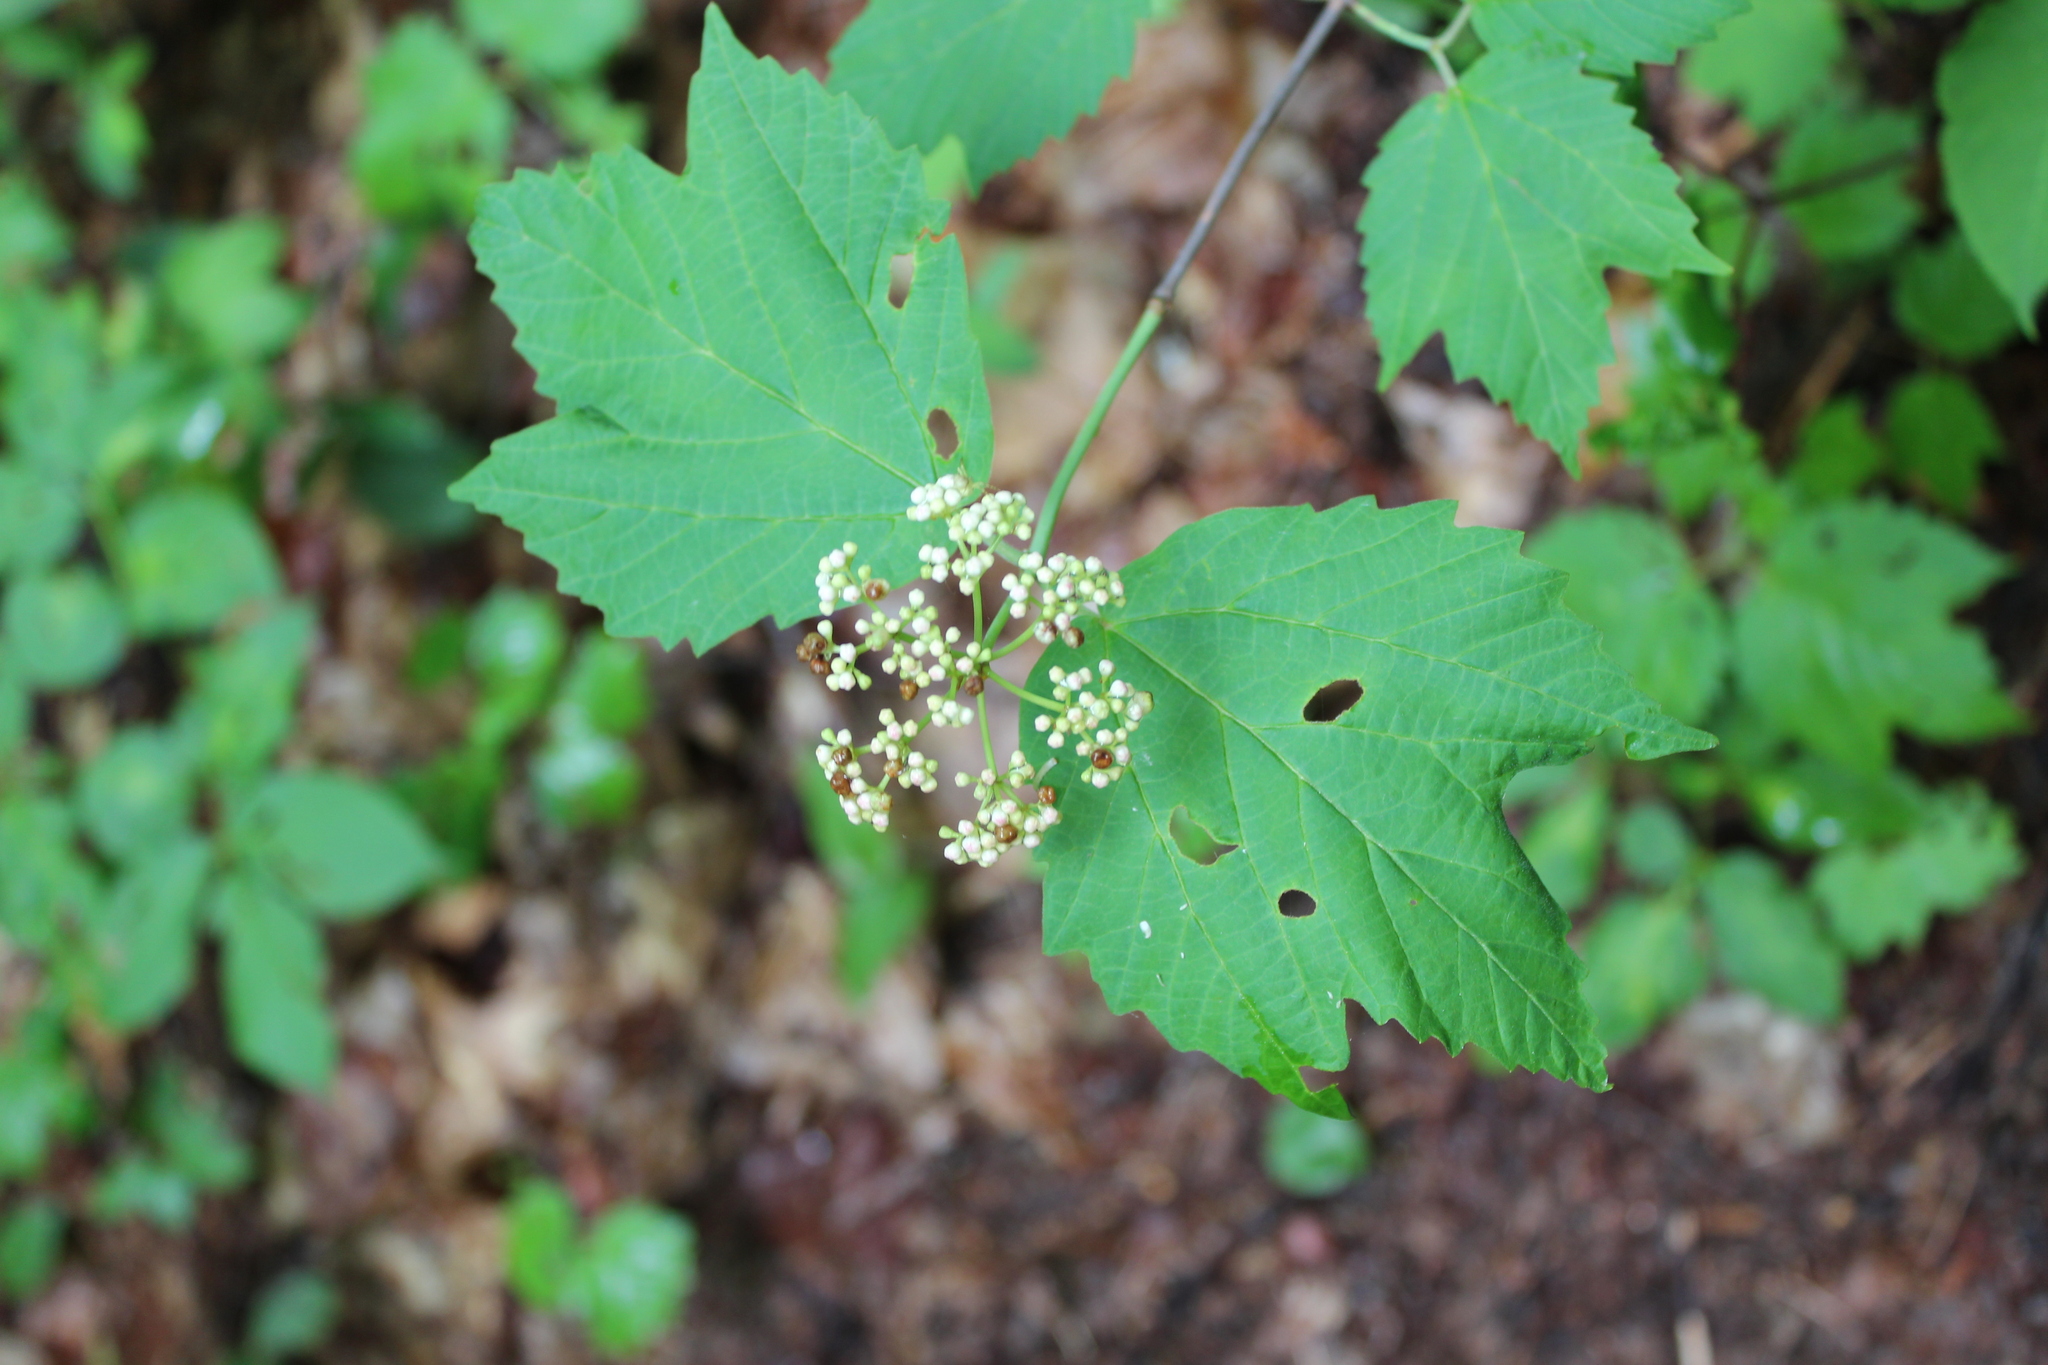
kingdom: Plantae
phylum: Tracheophyta
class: Magnoliopsida
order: Dipsacales
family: Viburnaceae
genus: Viburnum
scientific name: Viburnum acerifolium
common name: Dockmackie
